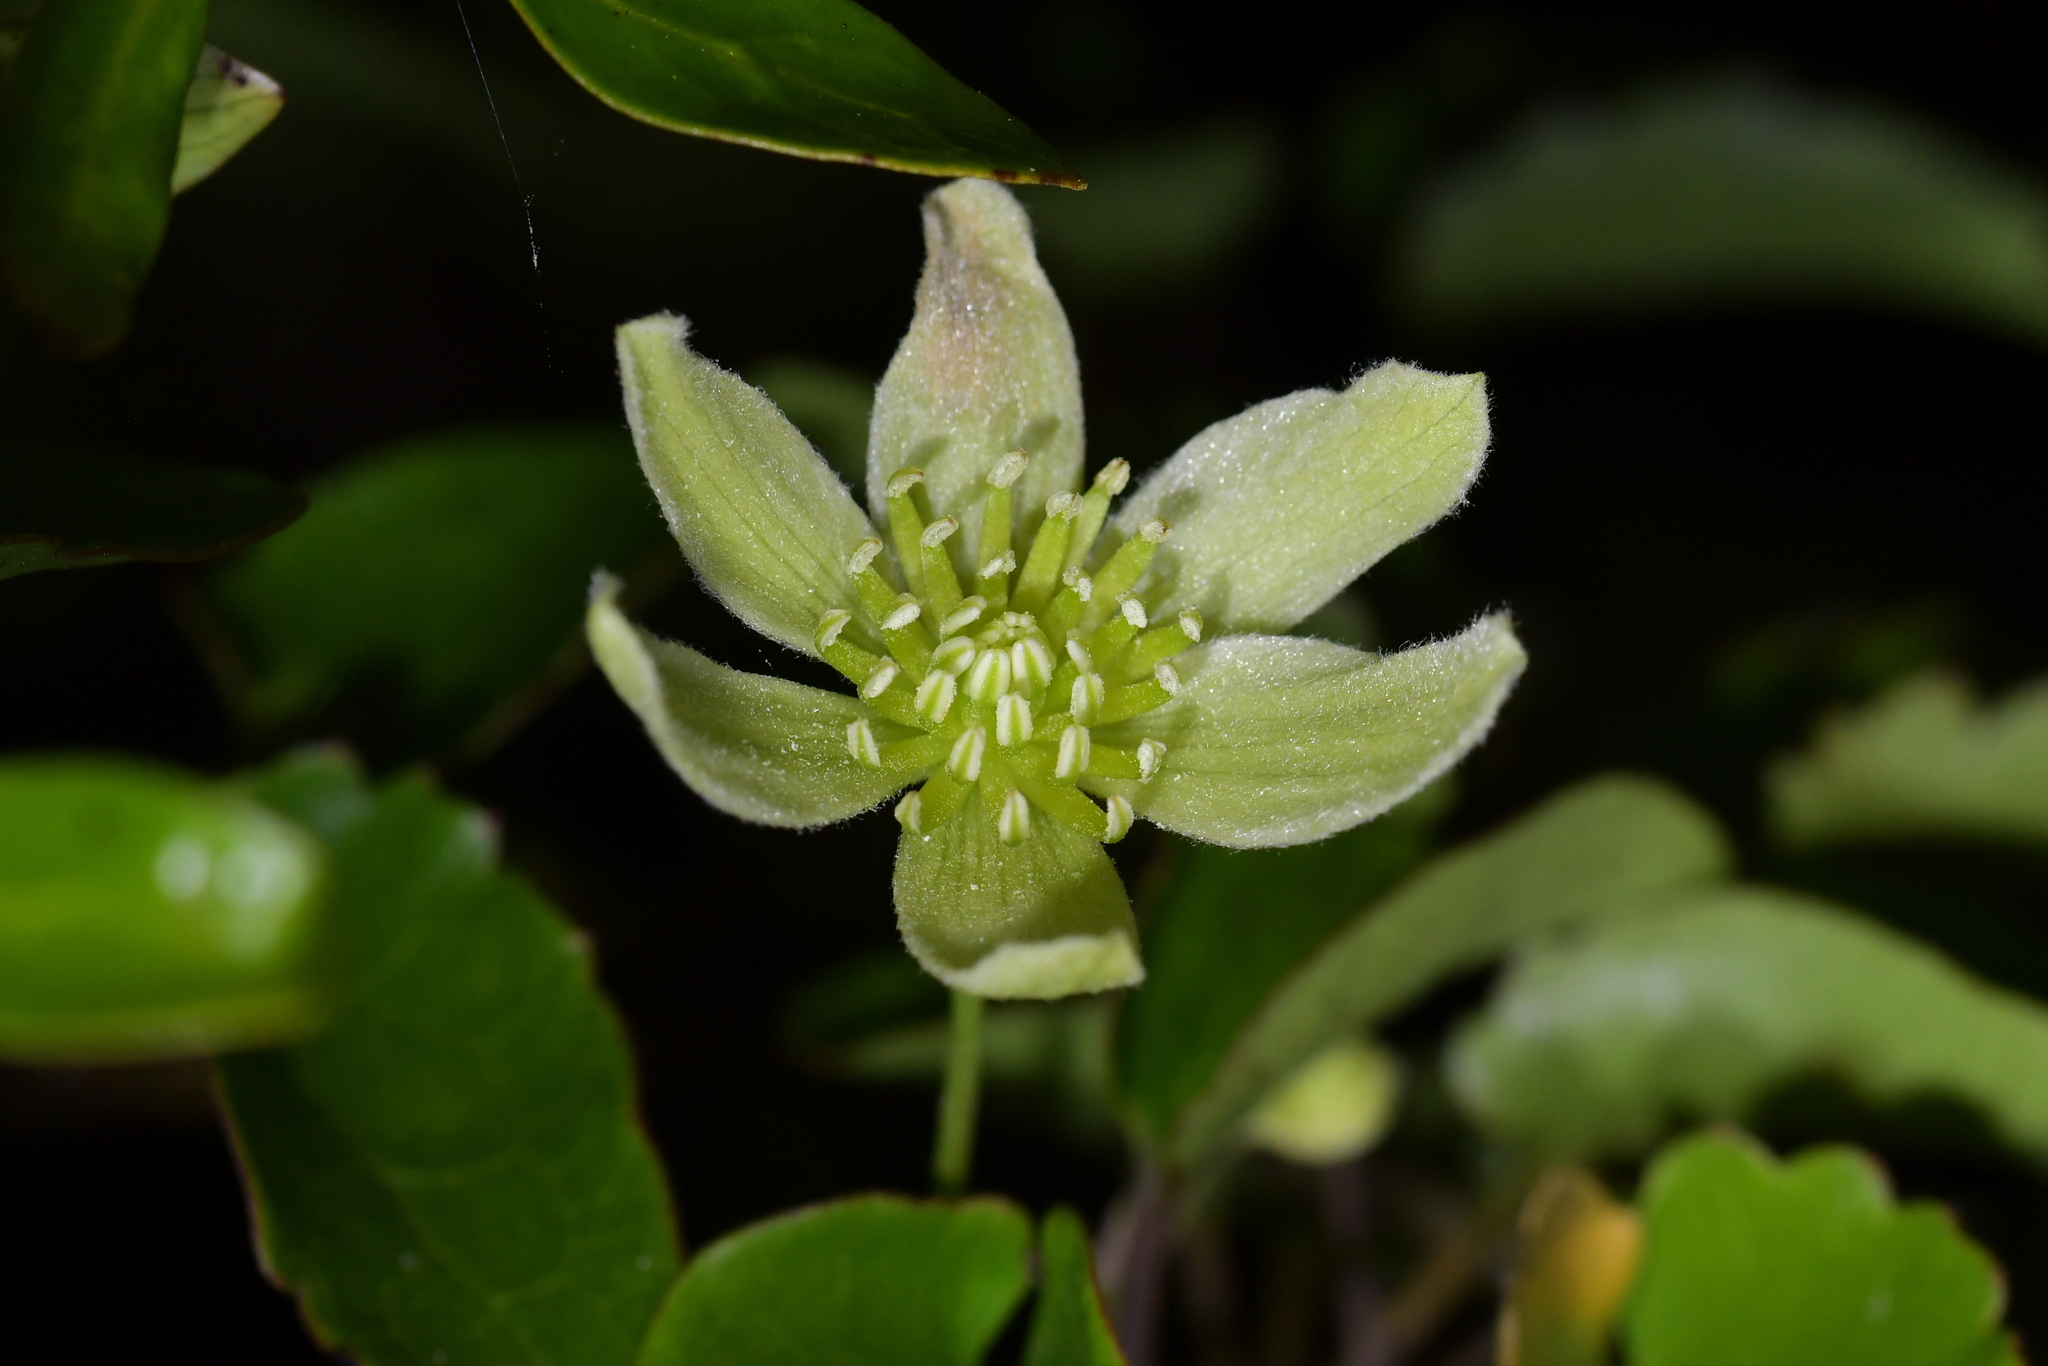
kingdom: Plantae
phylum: Tracheophyta
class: Magnoliopsida
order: Ranunculales
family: Ranunculaceae
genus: Clematis
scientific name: Clematis forsteri
